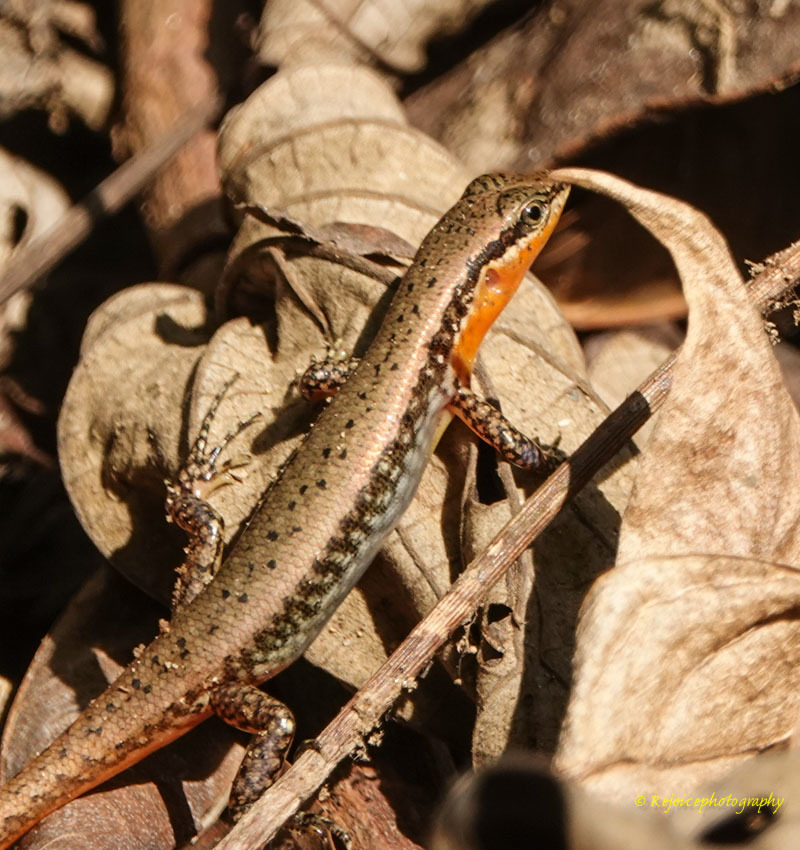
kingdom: Animalia
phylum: Chordata
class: Squamata
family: Scincidae
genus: Sphenomorphus
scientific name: Sphenomorphus maculatus
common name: Maculated forest skink
